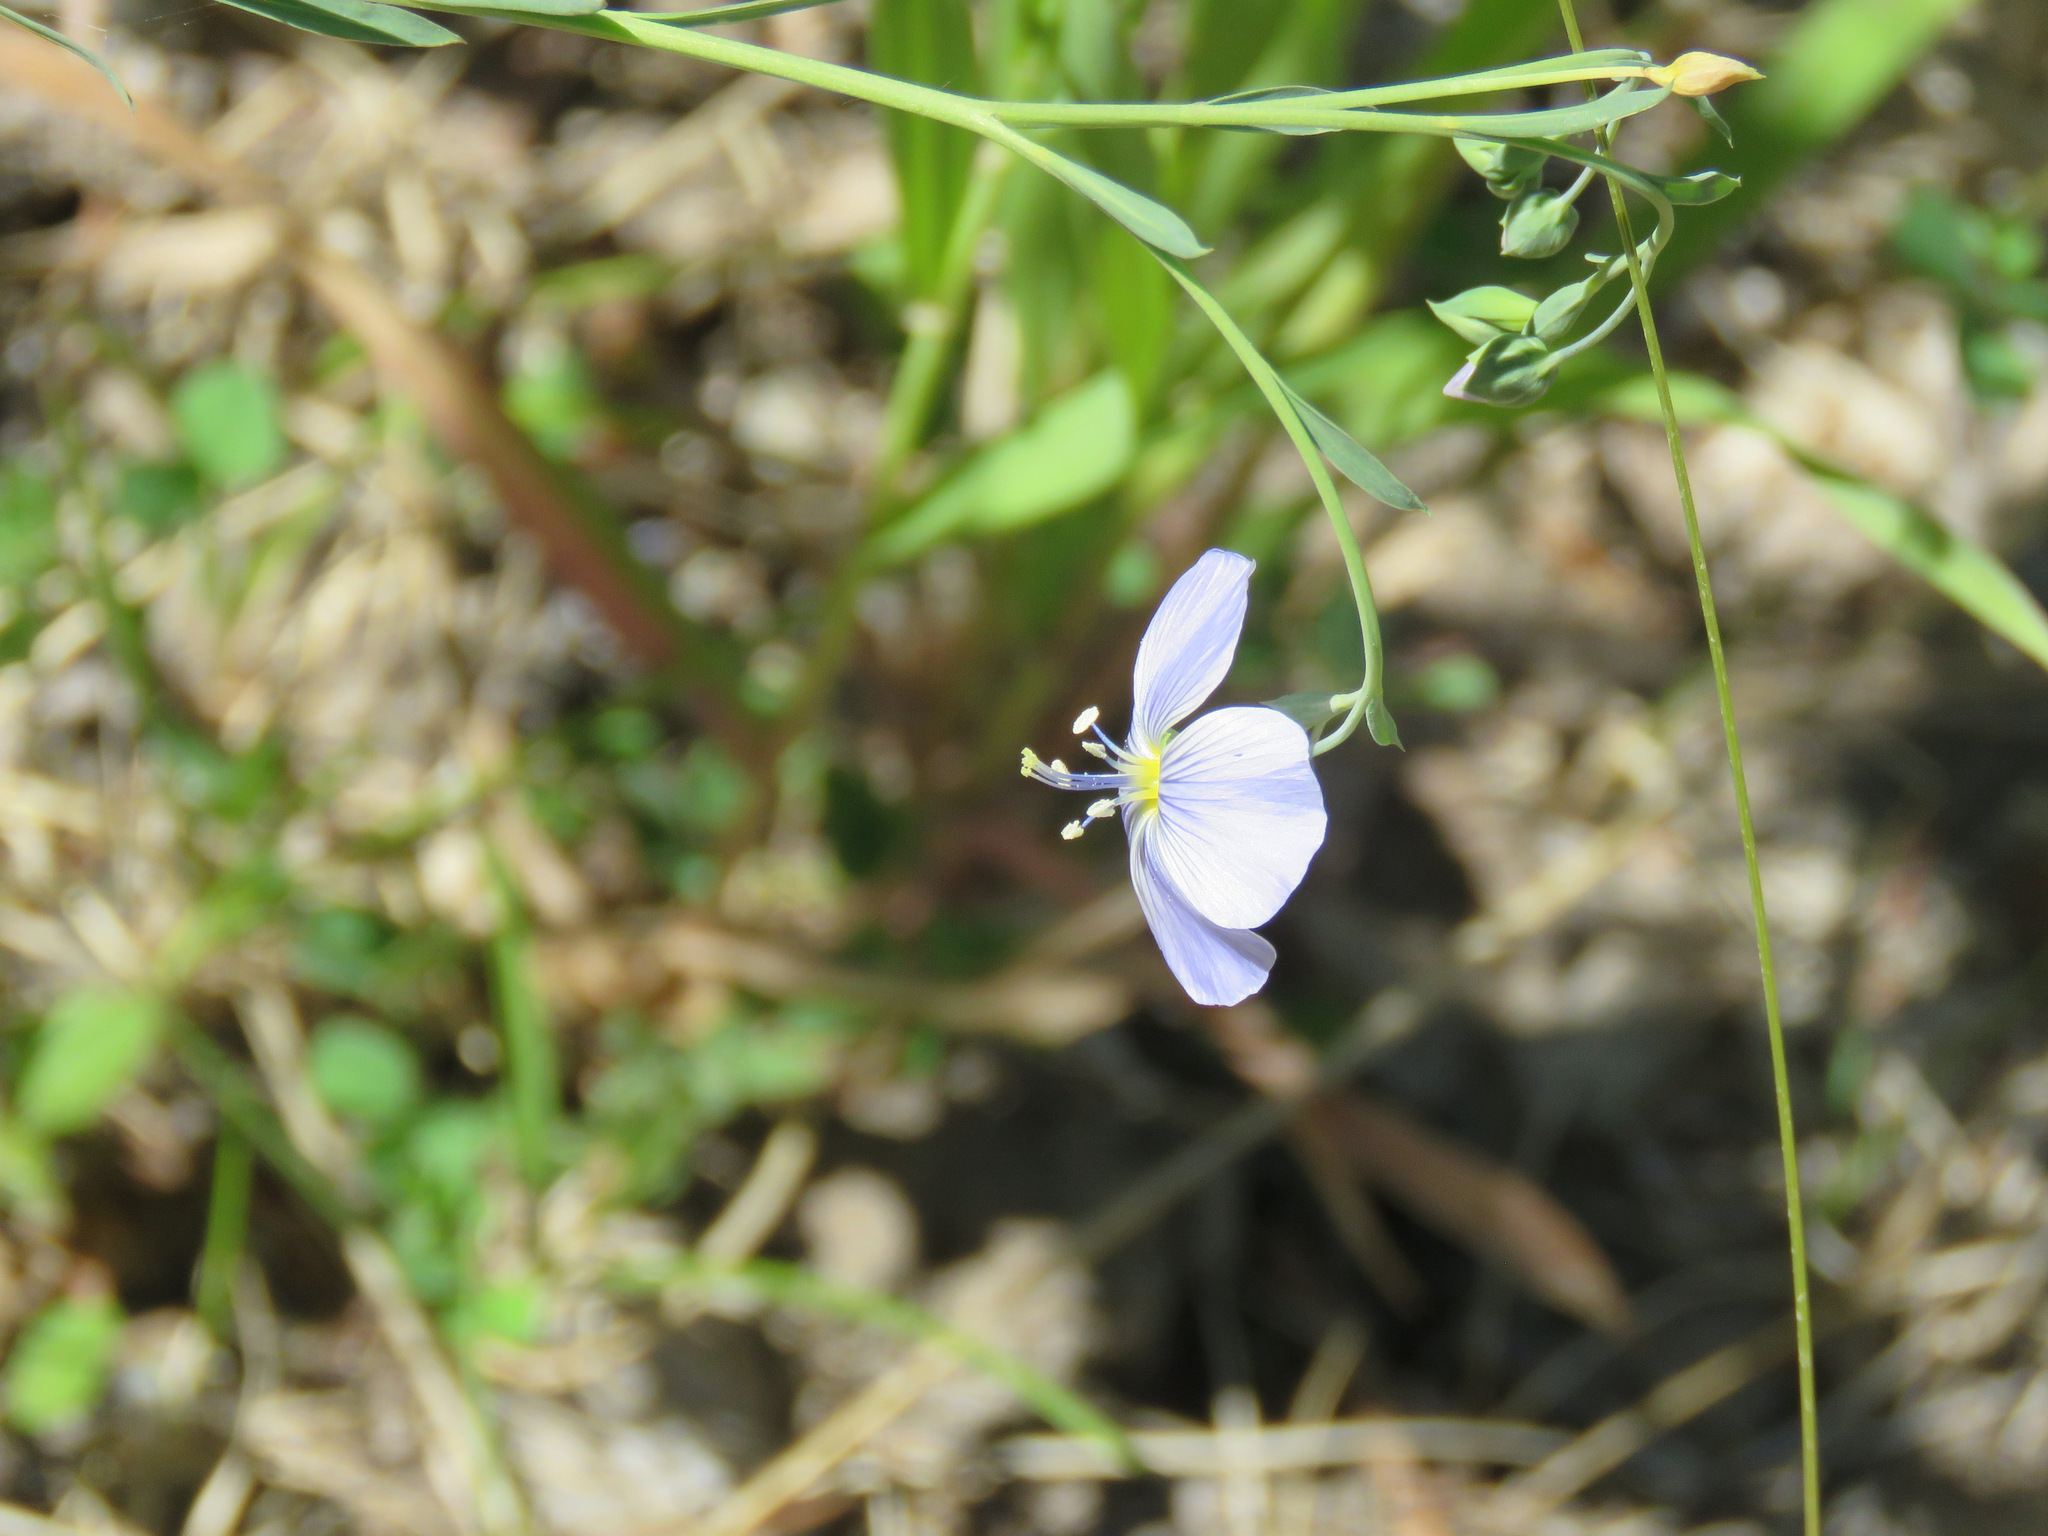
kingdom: Plantae
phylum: Tracheophyta
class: Magnoliopsida
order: Malpighiales
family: Linaceae
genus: Linum
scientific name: Linum lewisii
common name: Prairie flax
